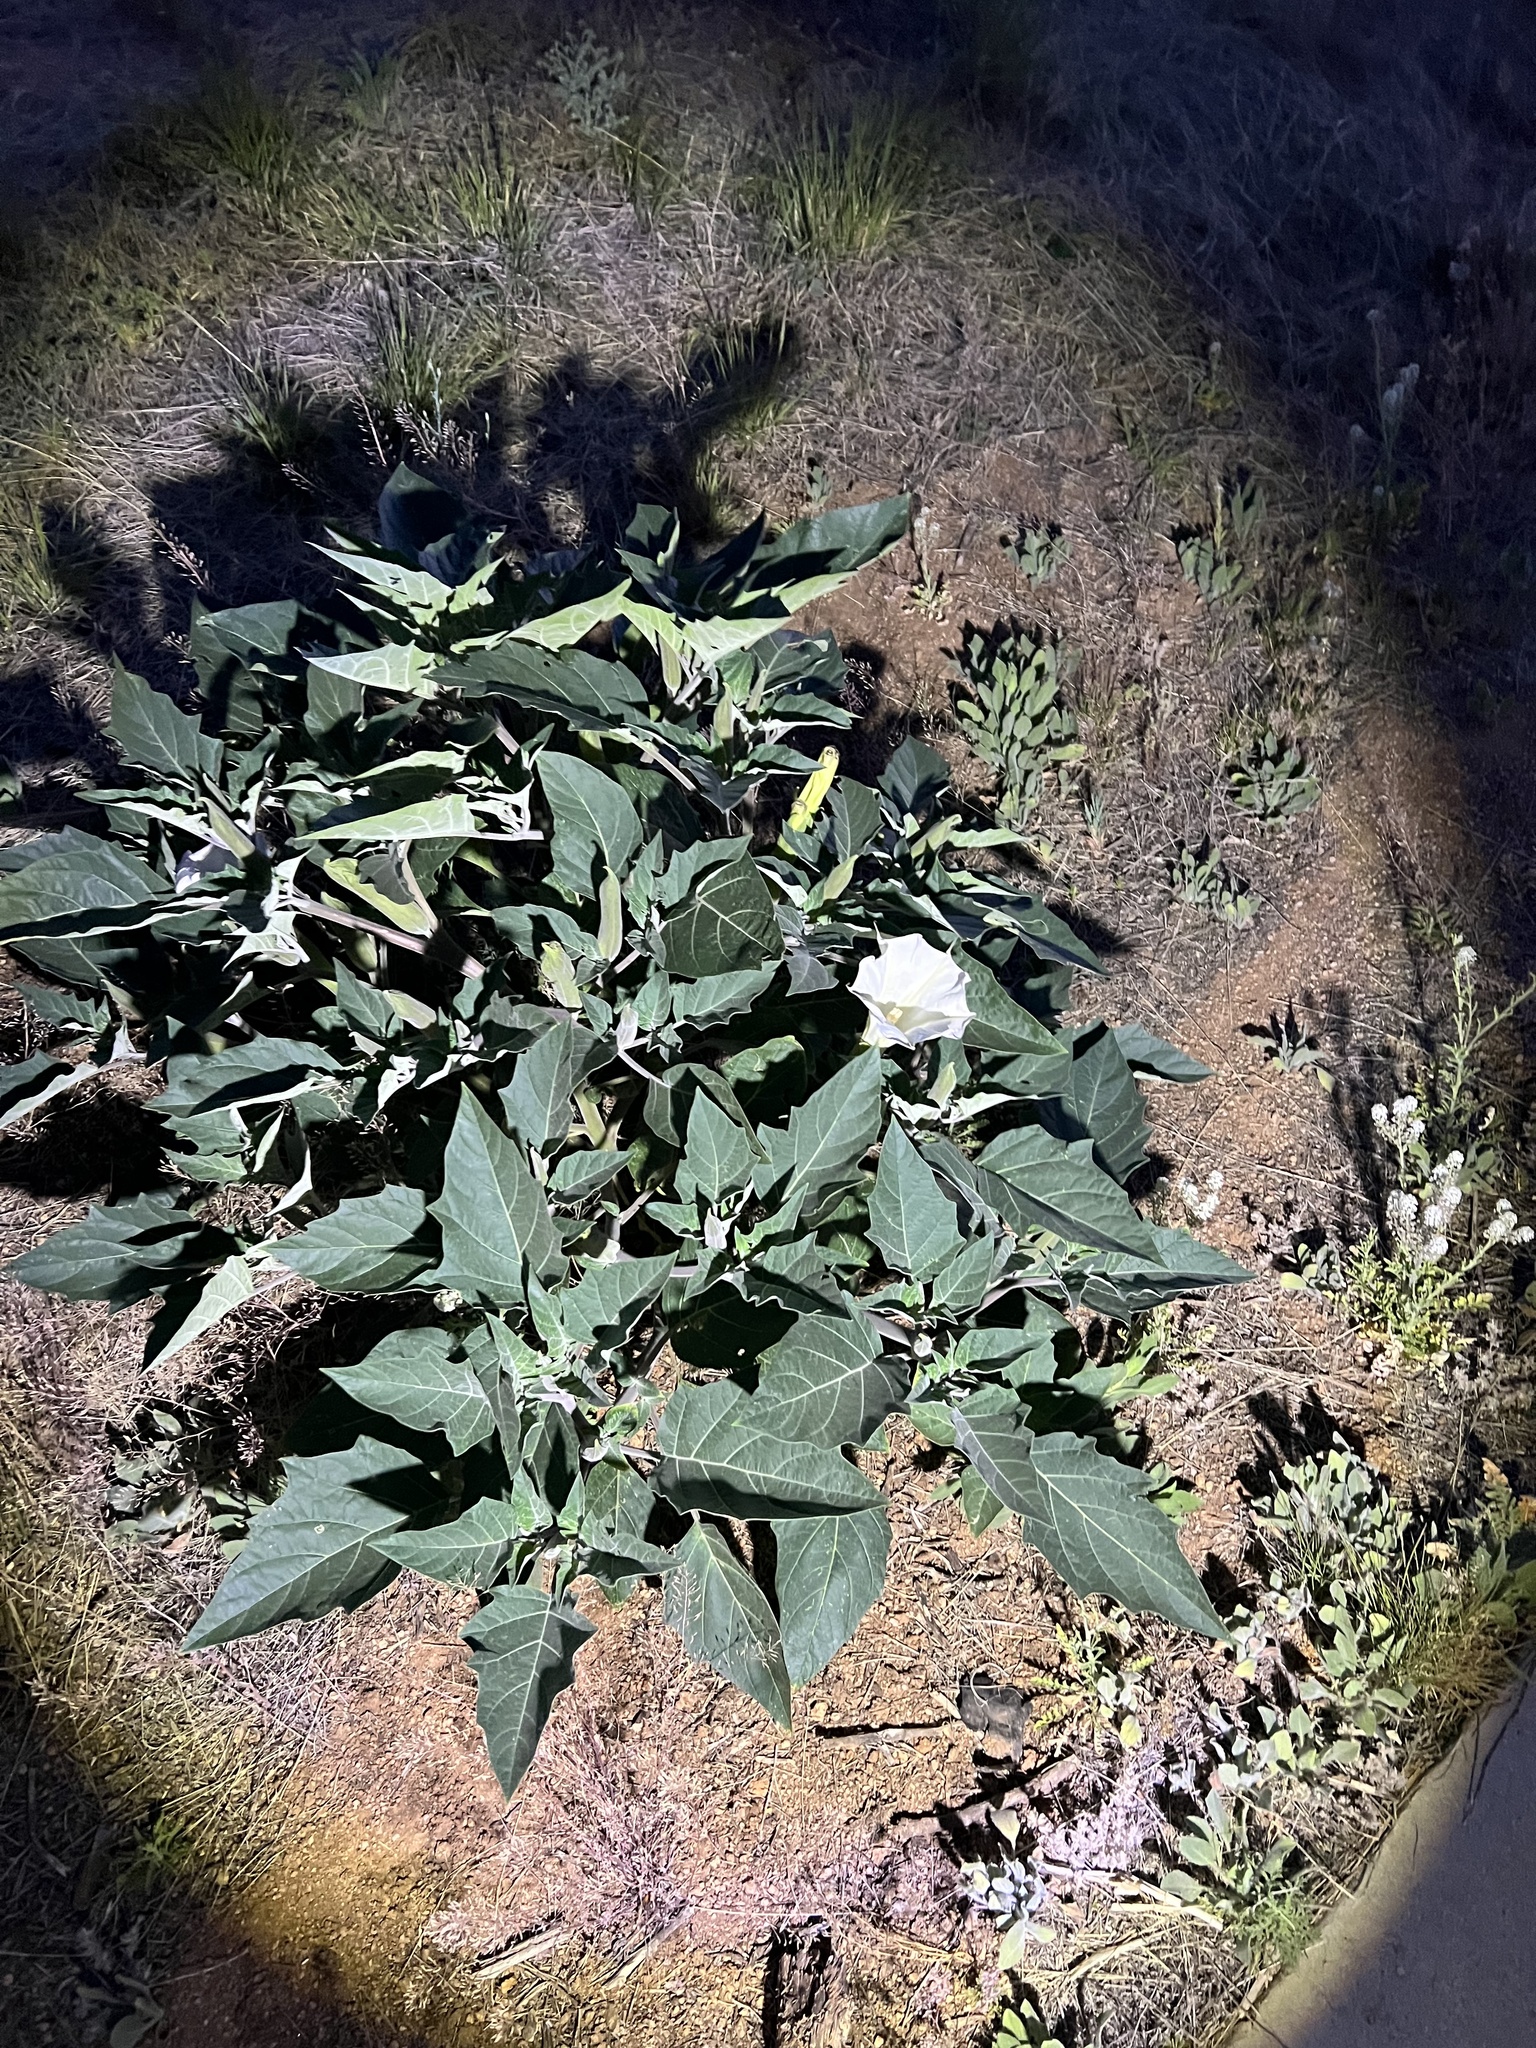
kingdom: Plantae
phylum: Tracheophyta
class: Magnoliopsida
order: Solanales
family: Solanaceae
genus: Datura
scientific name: Datura wrightii
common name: Sacred thorn-apple
